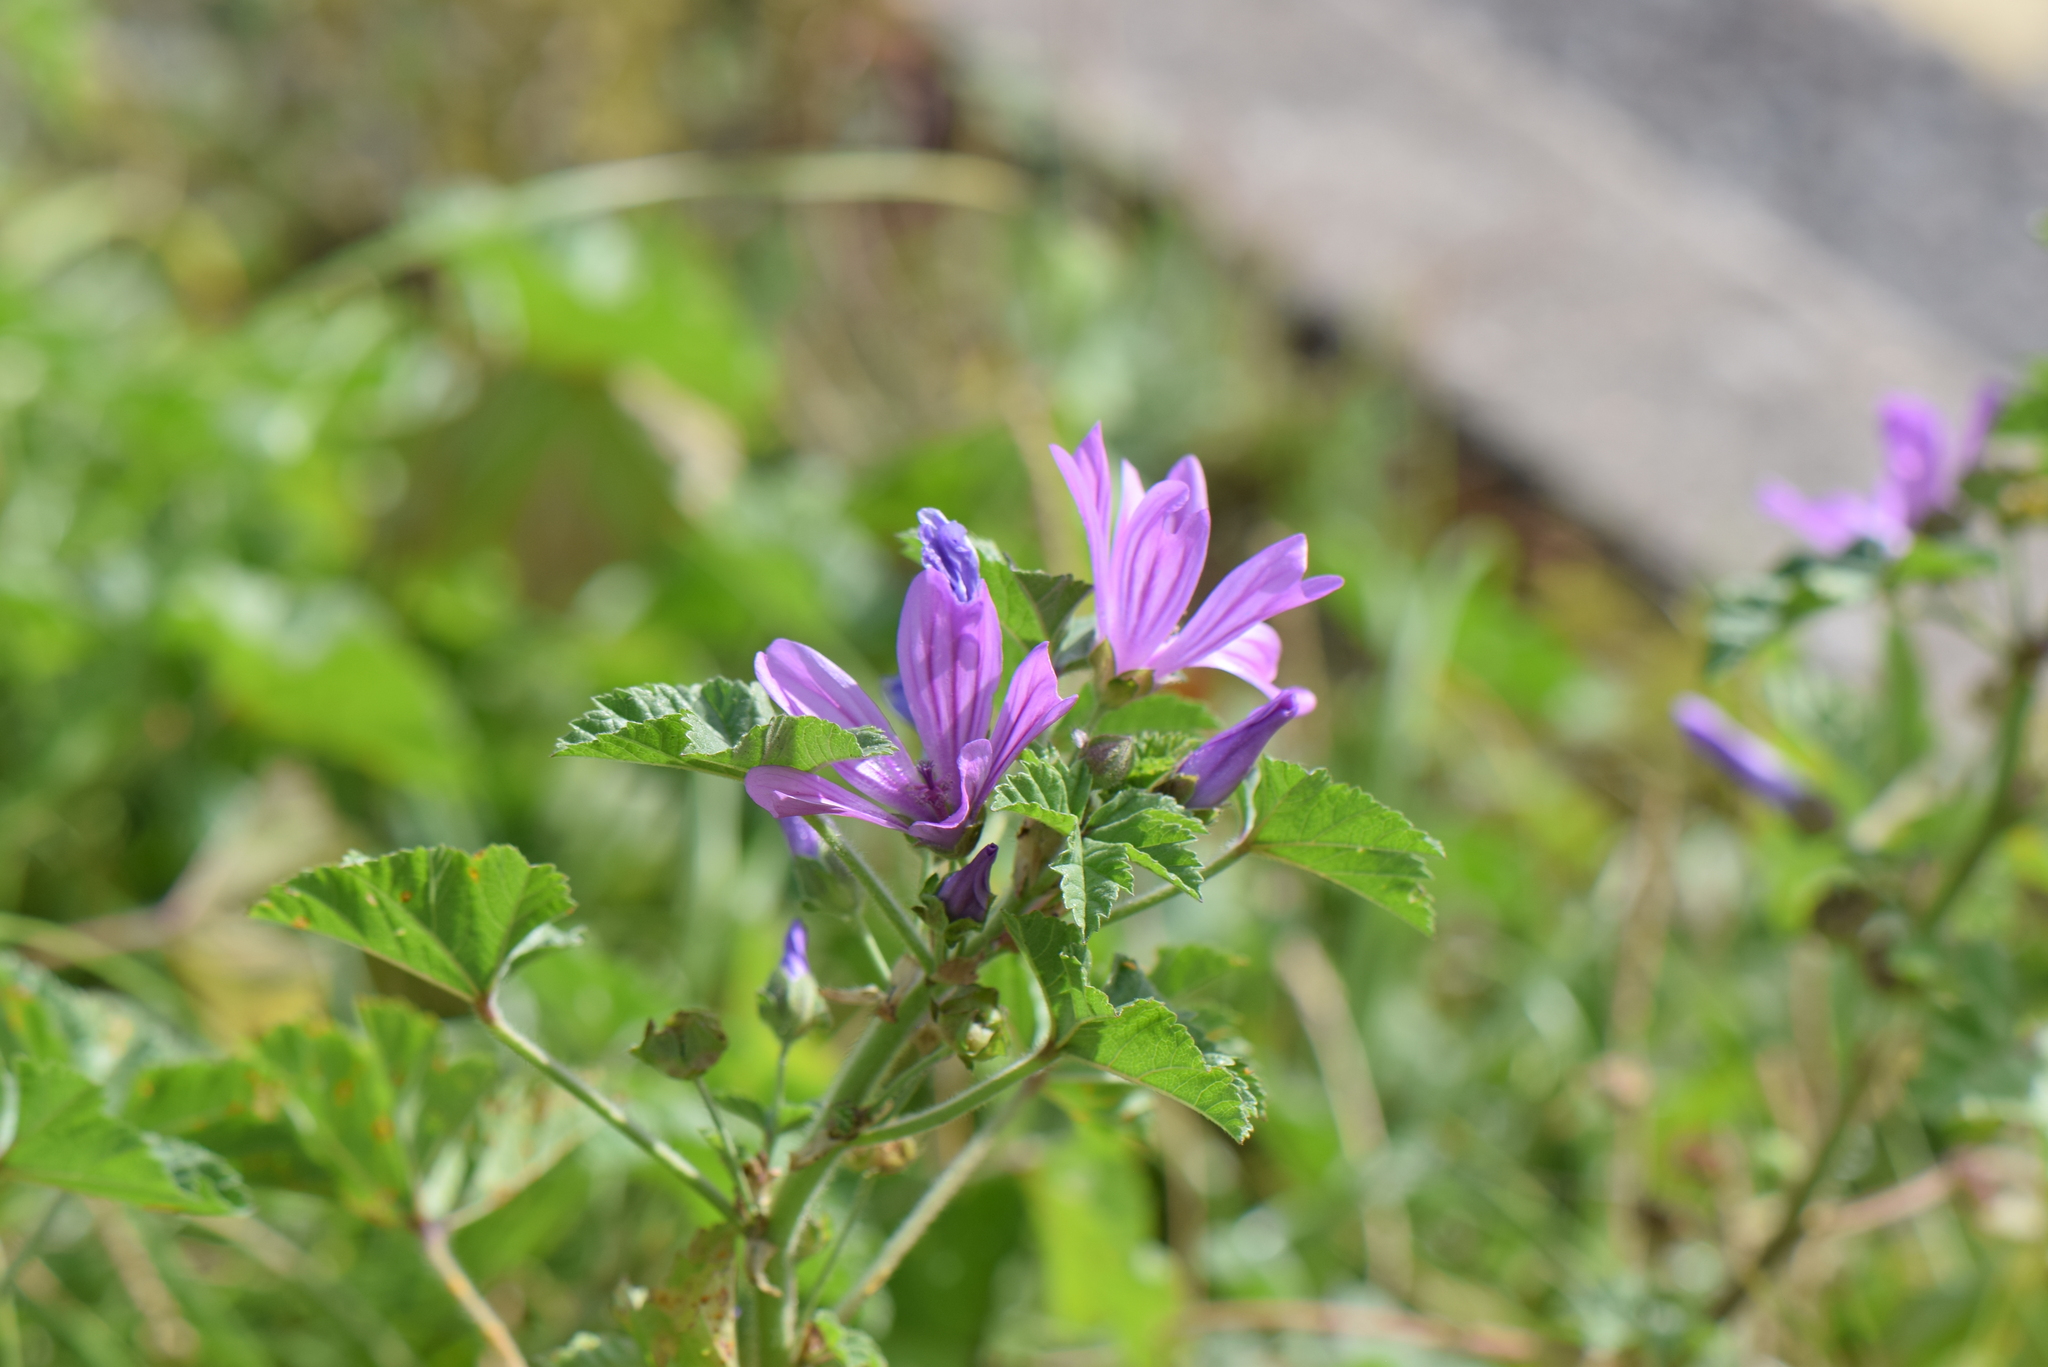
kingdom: Plantae
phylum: Tracheophyta
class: Magnoliopsida
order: Malvales
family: Malvaceae
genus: Malva
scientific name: Malva sylvestris
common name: Common mallow
